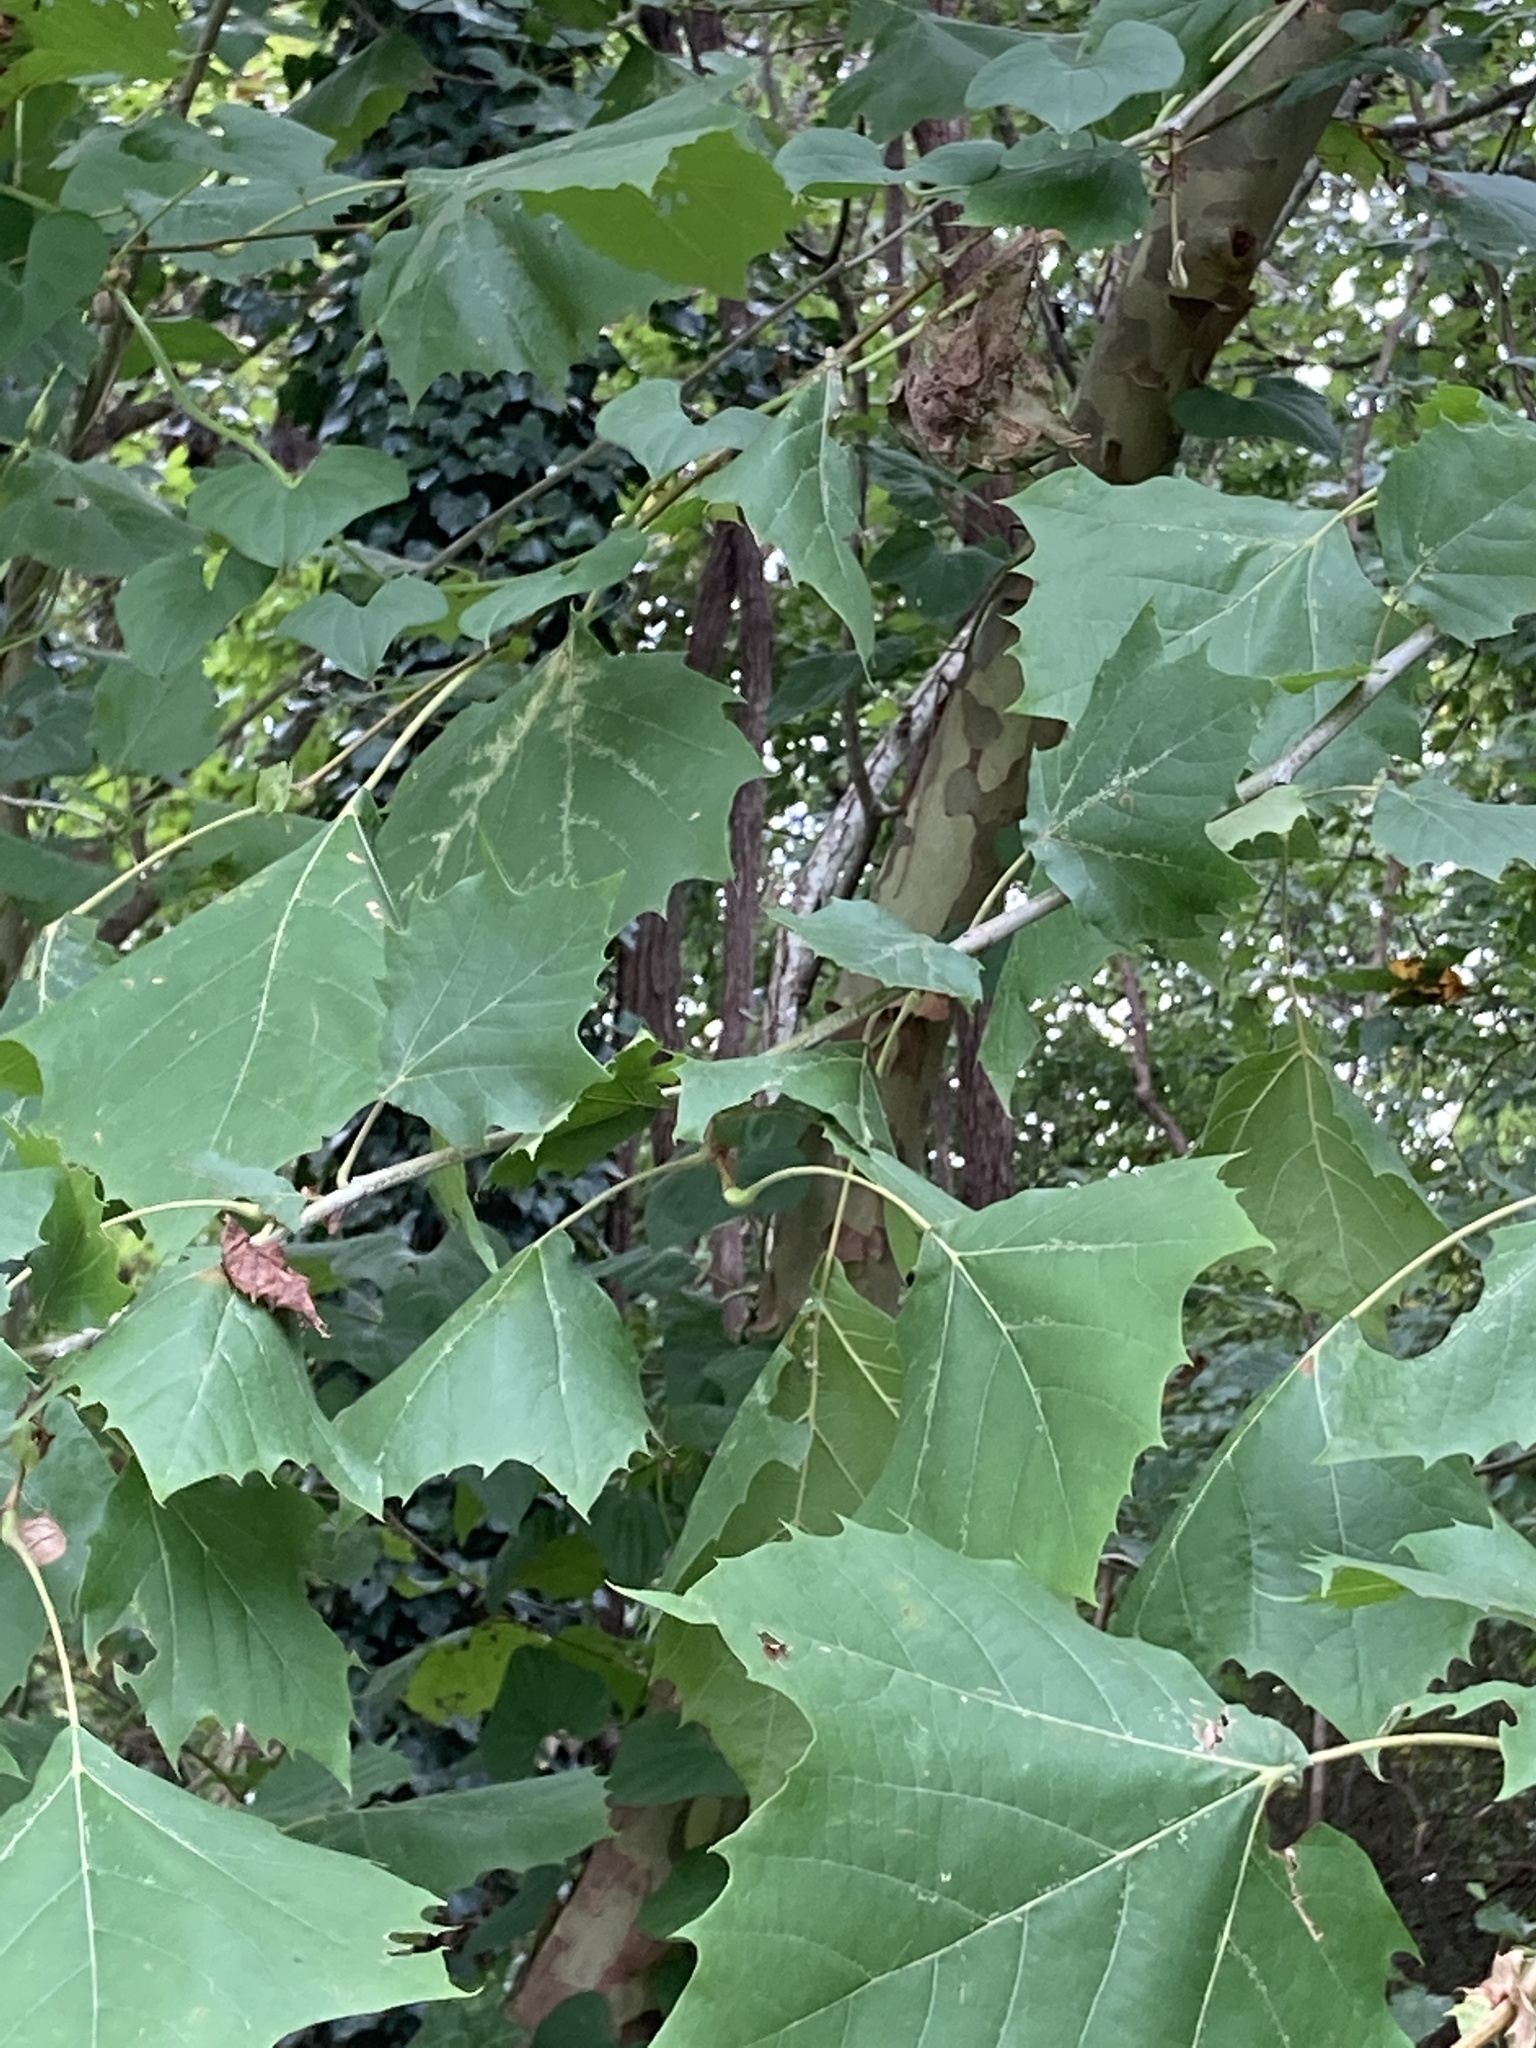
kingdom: Plantae
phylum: Tracheophyta
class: Magnoliopsida
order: Proteales
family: Platanaceae
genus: Platanus
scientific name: Platanus occidentalis
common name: American sycamore
